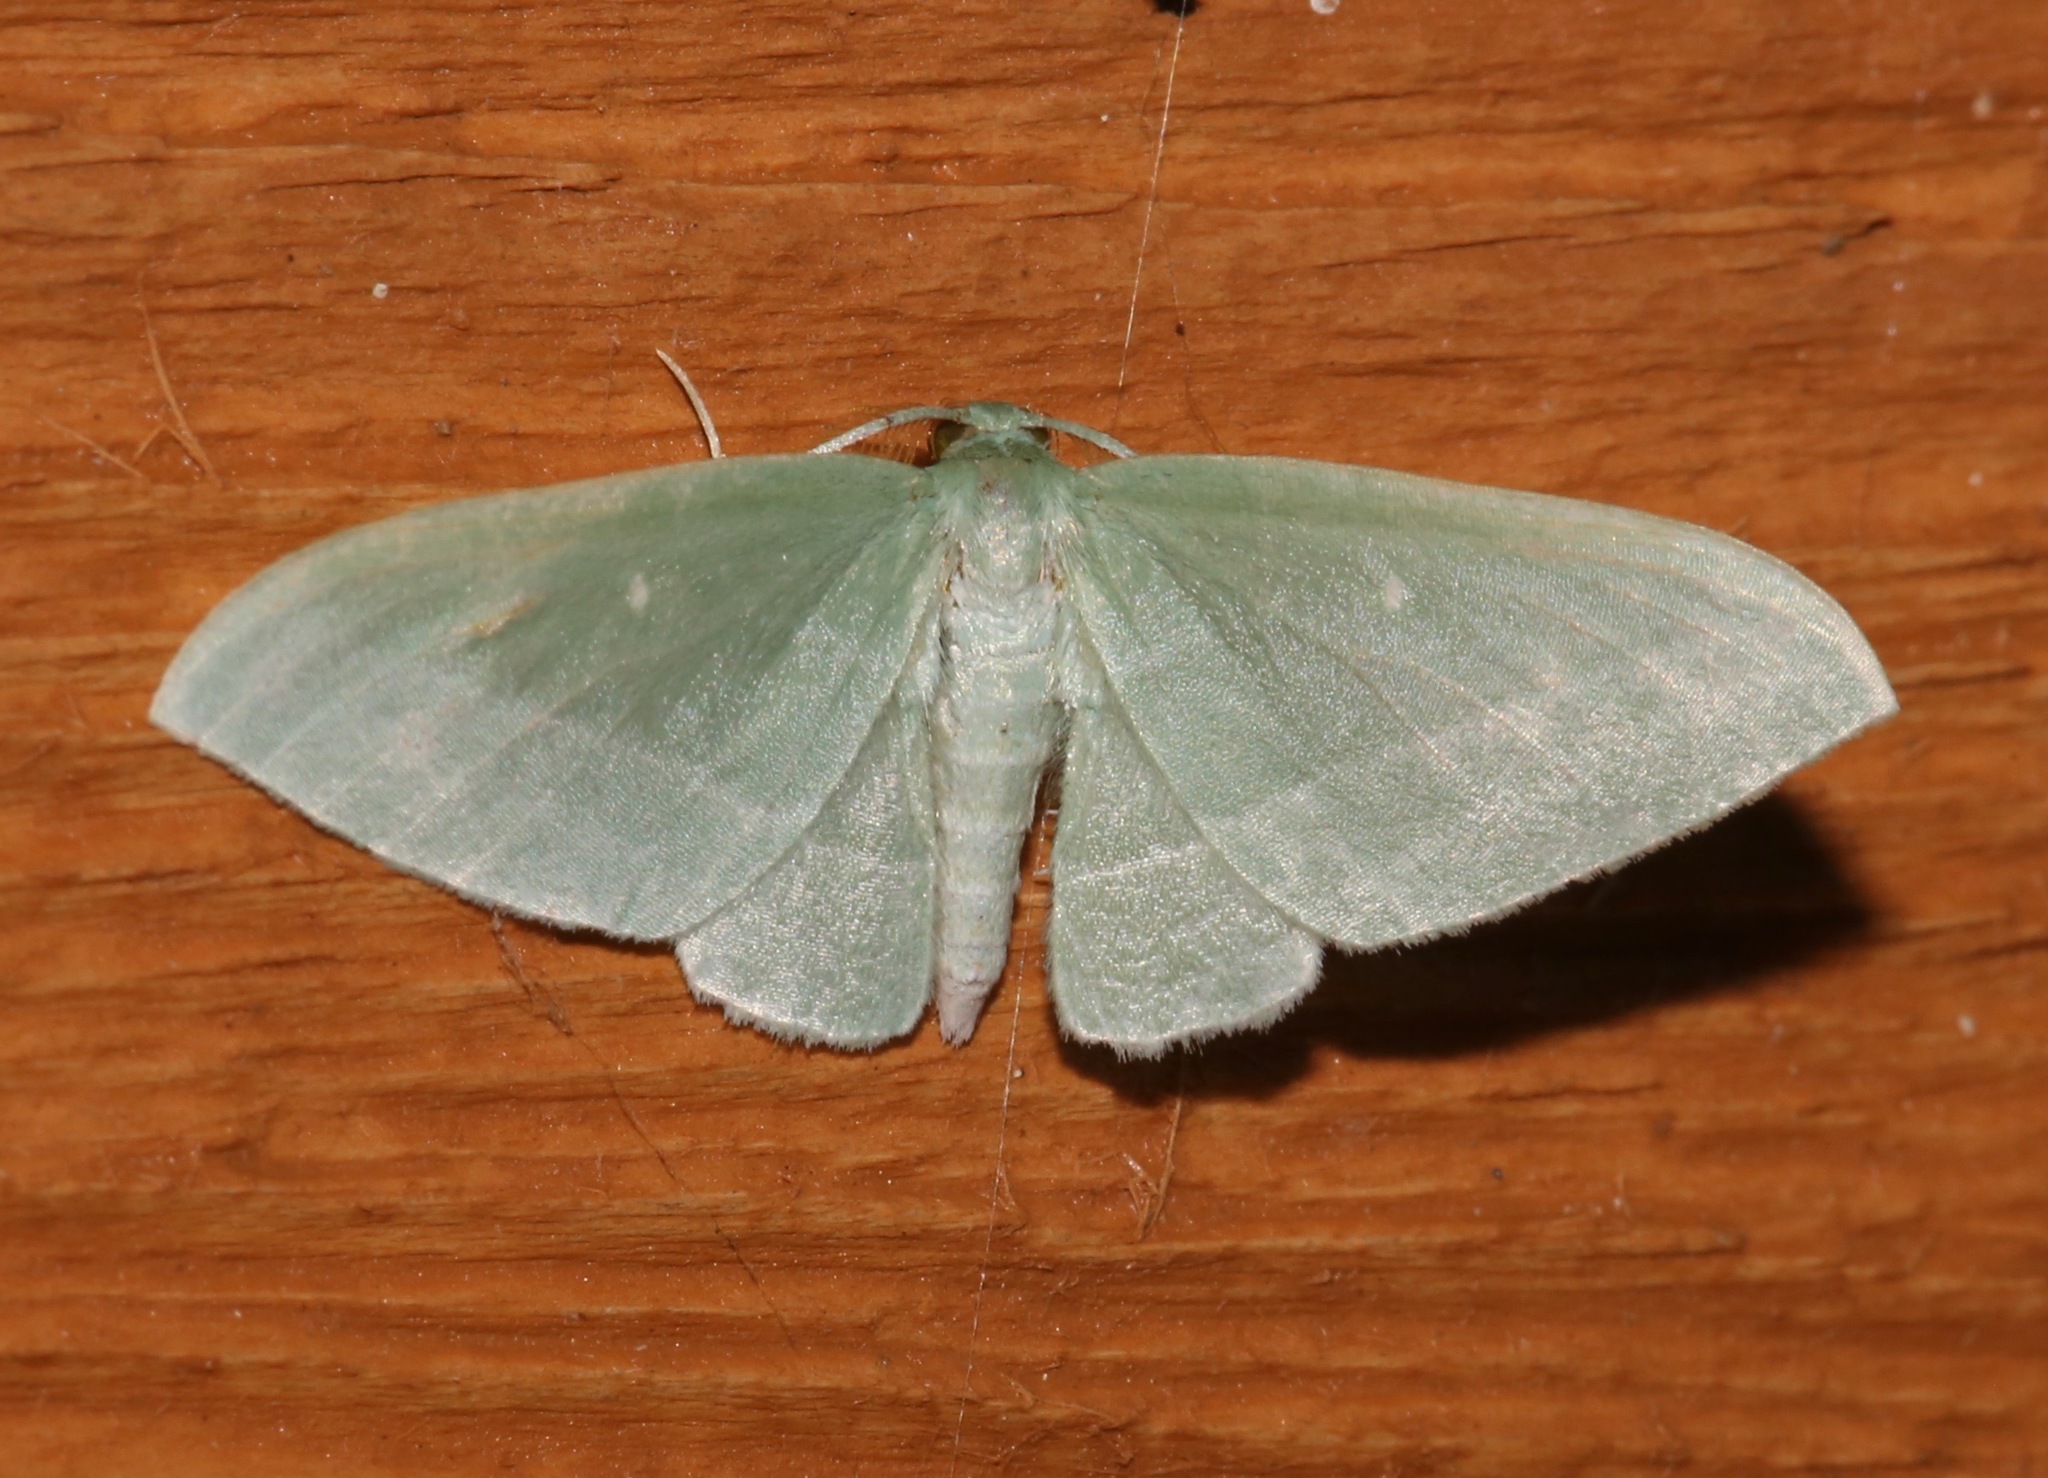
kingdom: Animalia
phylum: Arthropoda
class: Insecta
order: Lepidoptera
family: Geometridae
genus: Dyspteris
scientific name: Dyspteris abortivaria
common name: Bad-wing
